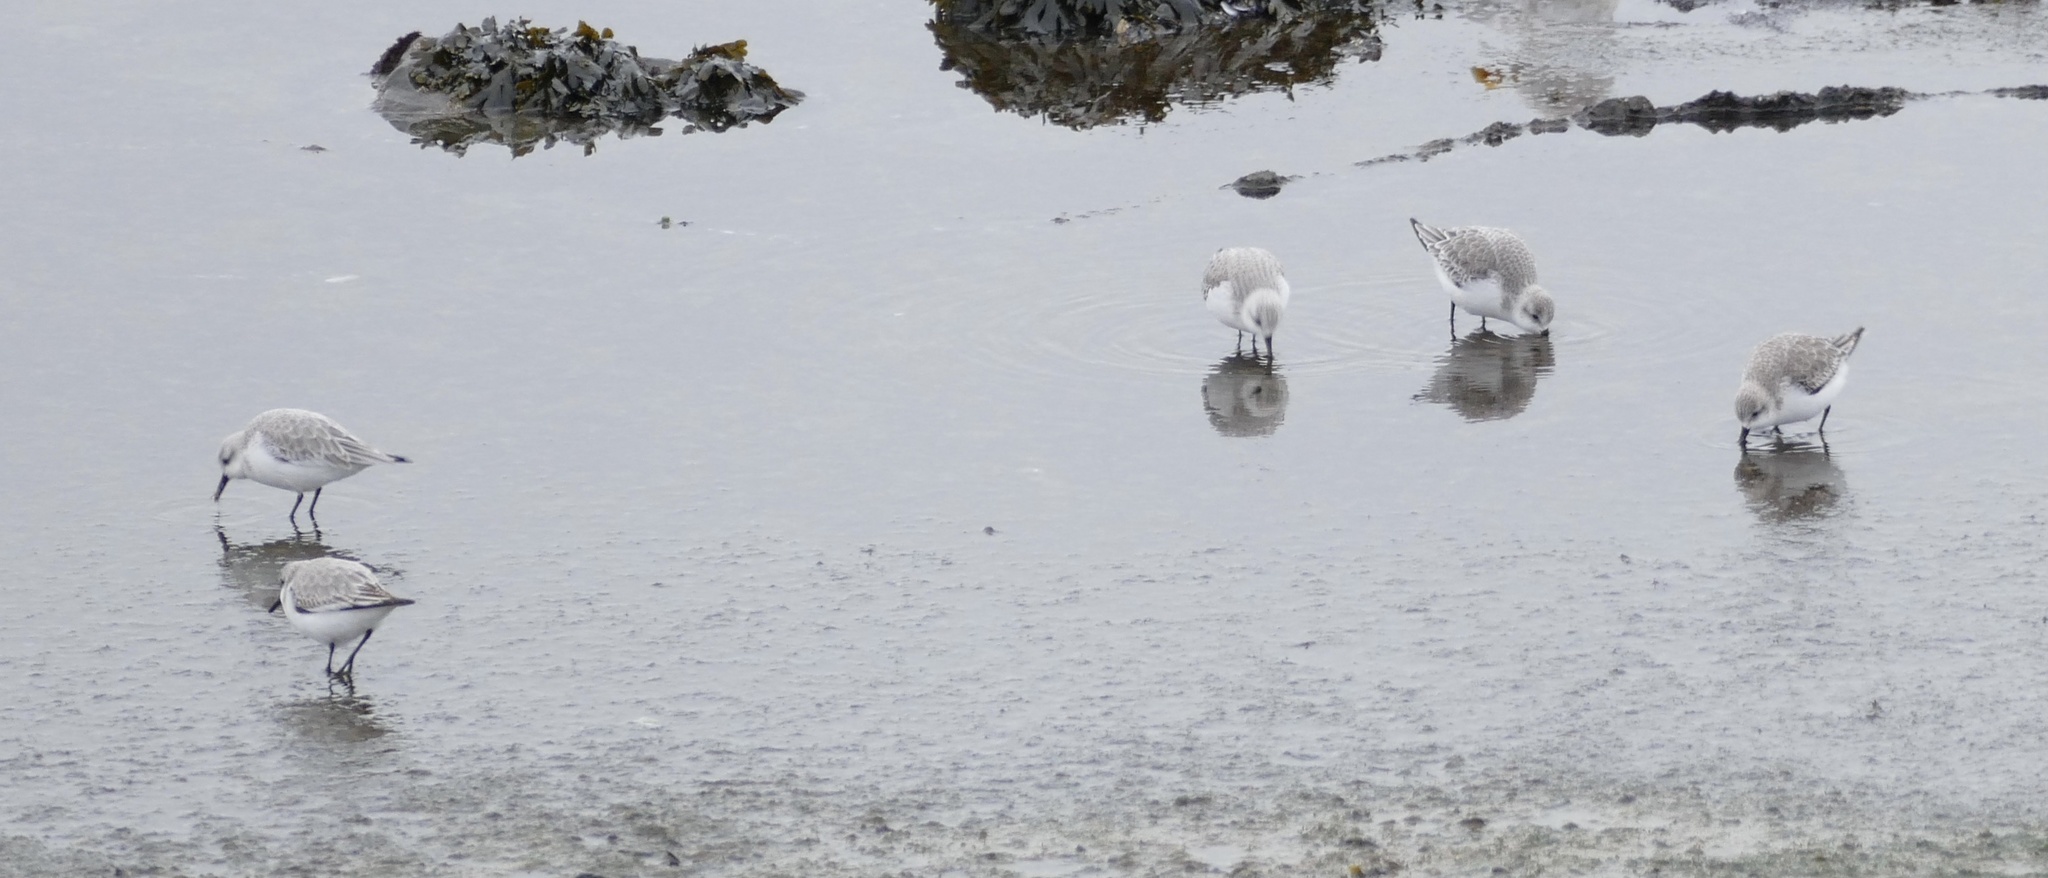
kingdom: Animalia
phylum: Chordata
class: Aves
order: Charadriiformes
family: Scolopacidae
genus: Calidris
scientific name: Calidris alba
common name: Sanderling
